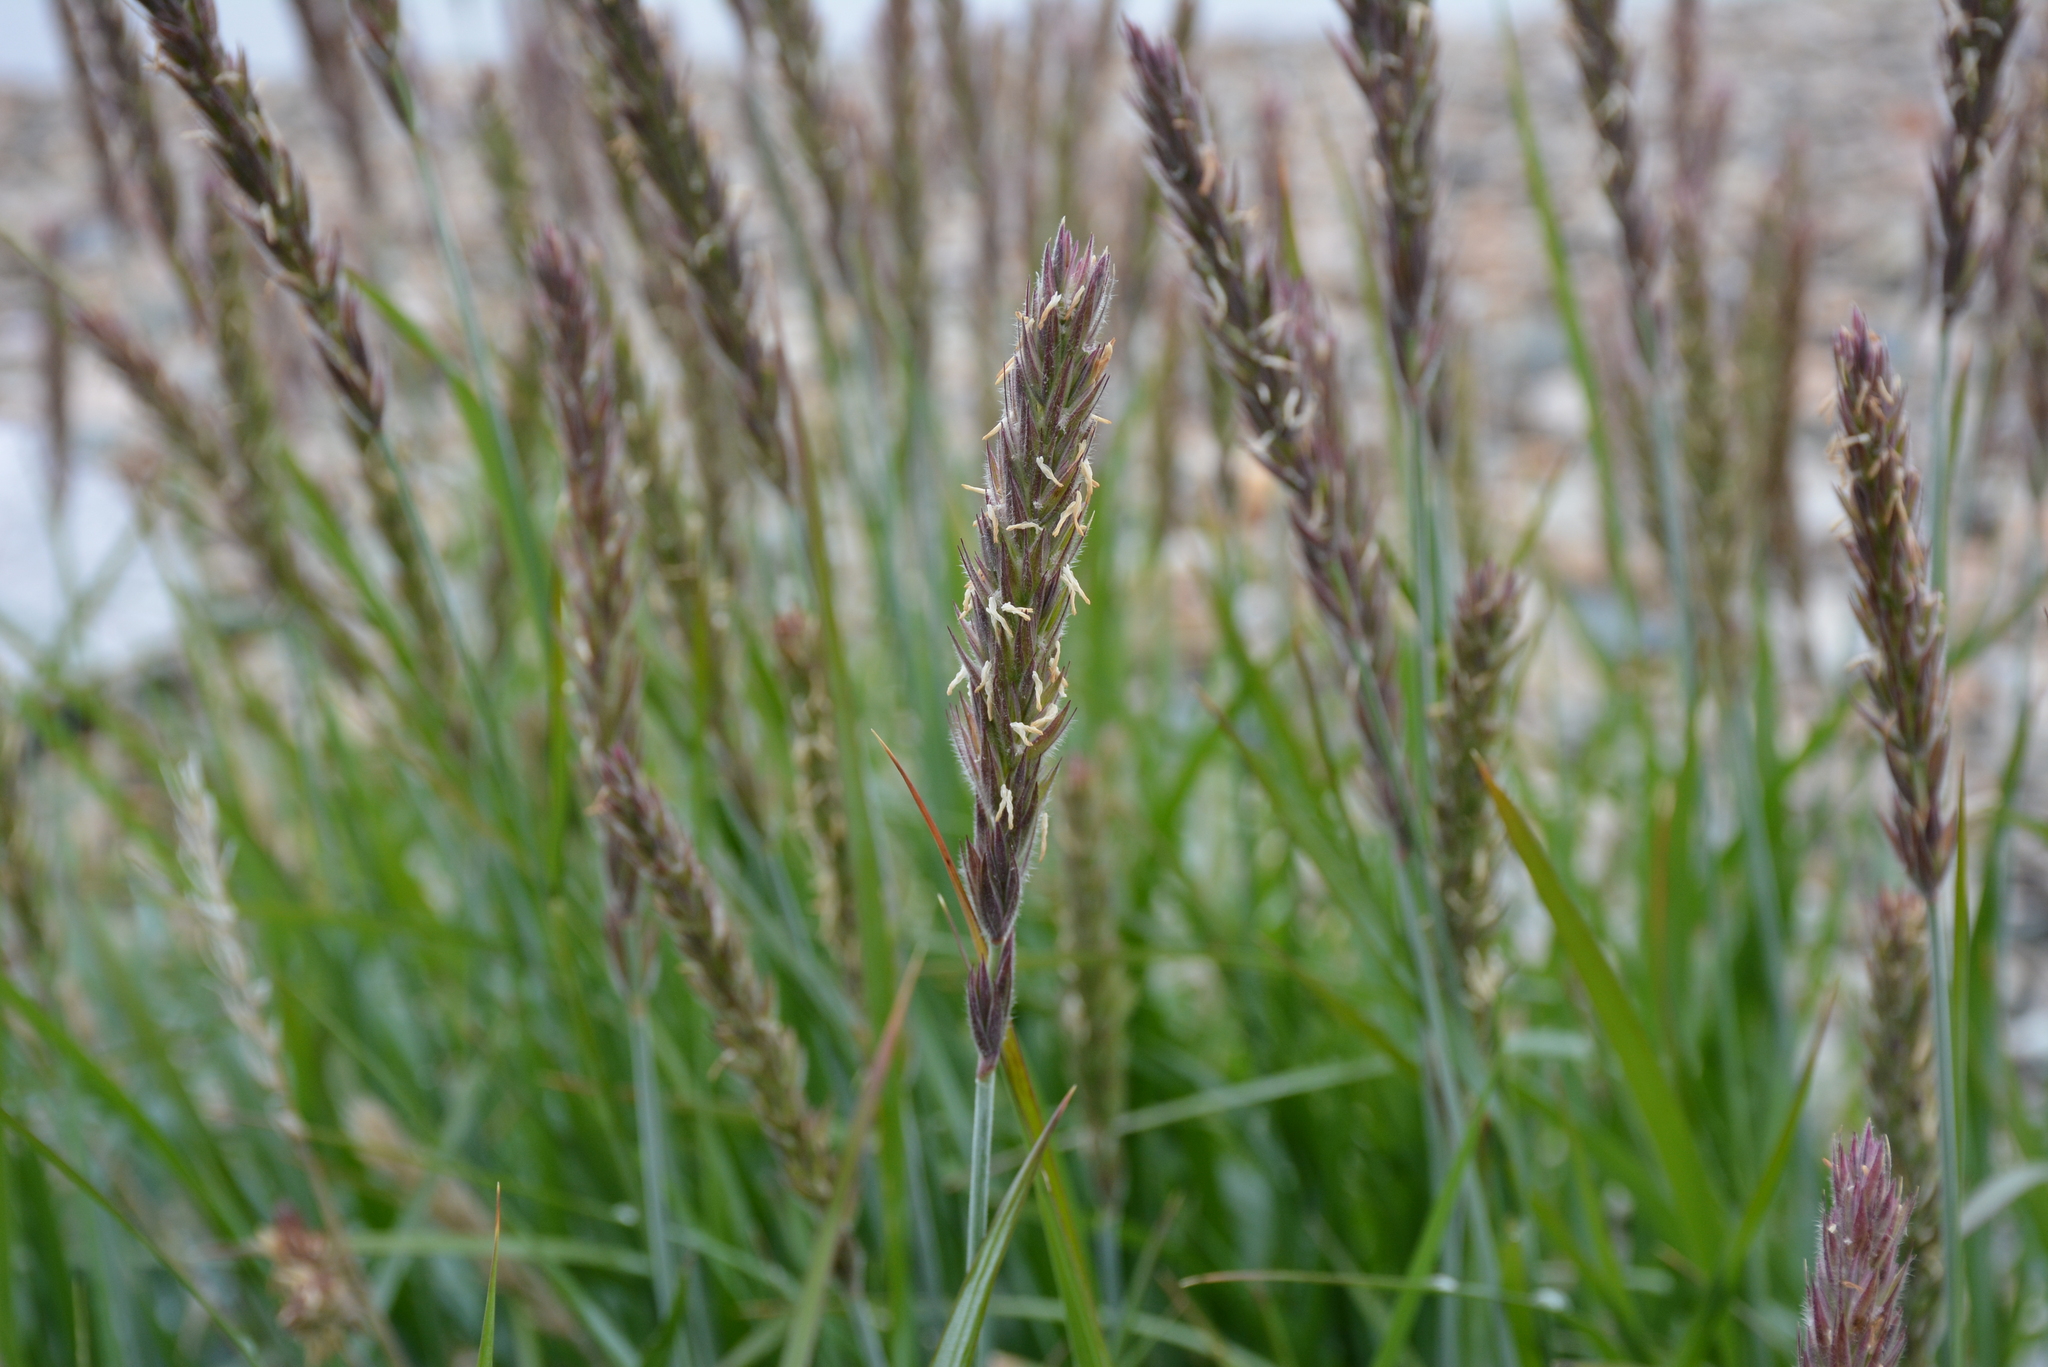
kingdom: Plantae
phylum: Tracheophyta
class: Liliopsida
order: Poales
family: Poaceae
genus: Leymus
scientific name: Leymus villosissimus
